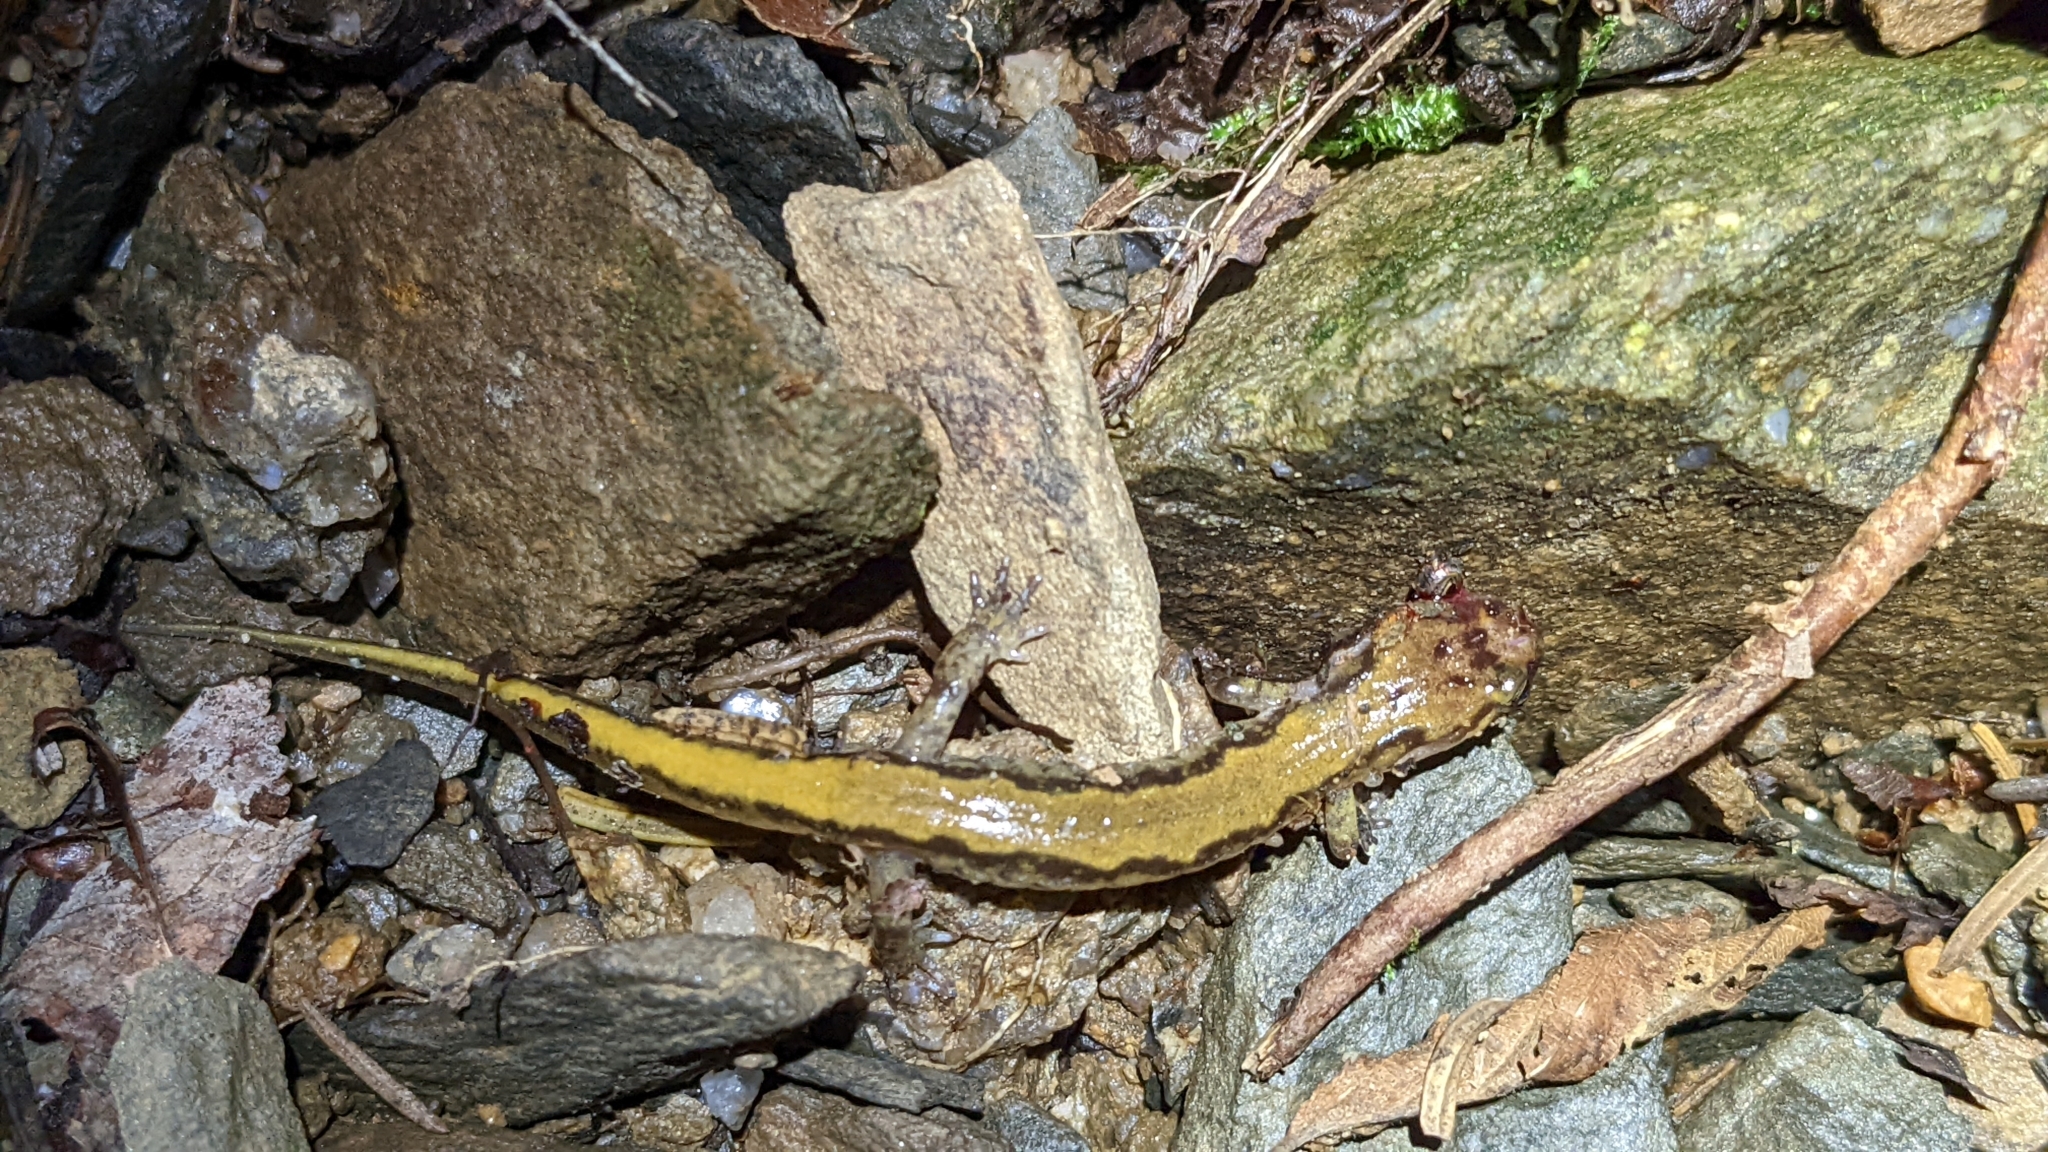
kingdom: Animalia
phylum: Chordata
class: Amphibia
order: Caudata
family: Plethodontidae
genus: Desmognathus
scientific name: Desmognathus carolinensis
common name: Carolina mountain dusky salamander
